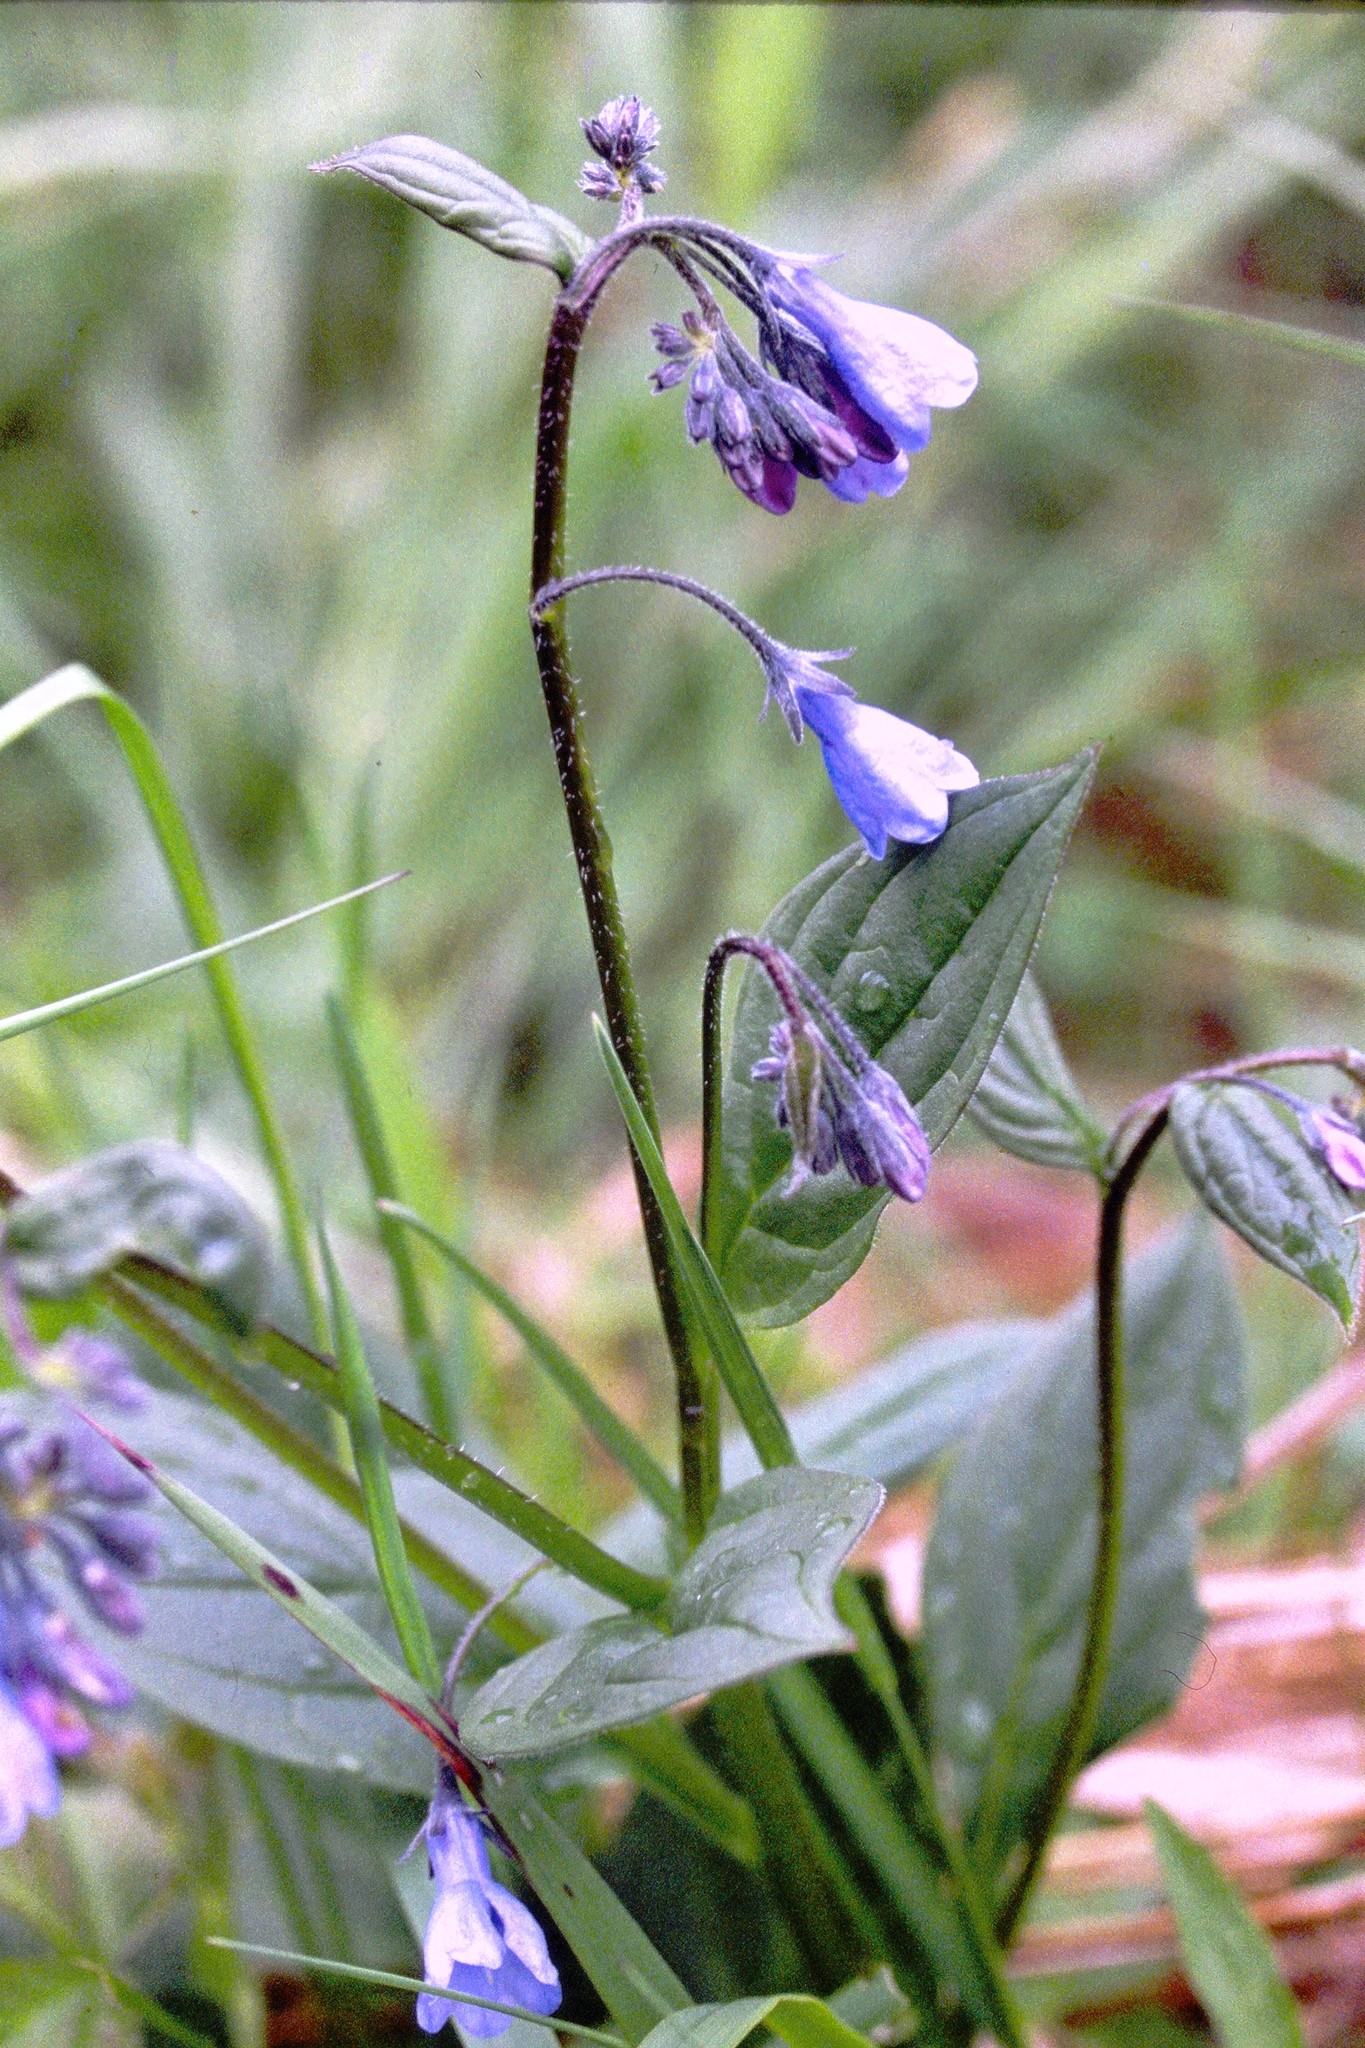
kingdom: Plantae
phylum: Tracheophyta
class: Magnoliopsida
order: Boraginales
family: Boraginaceae
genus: Mertensia
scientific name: Mertensia paniculata
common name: Panicled bluebells
